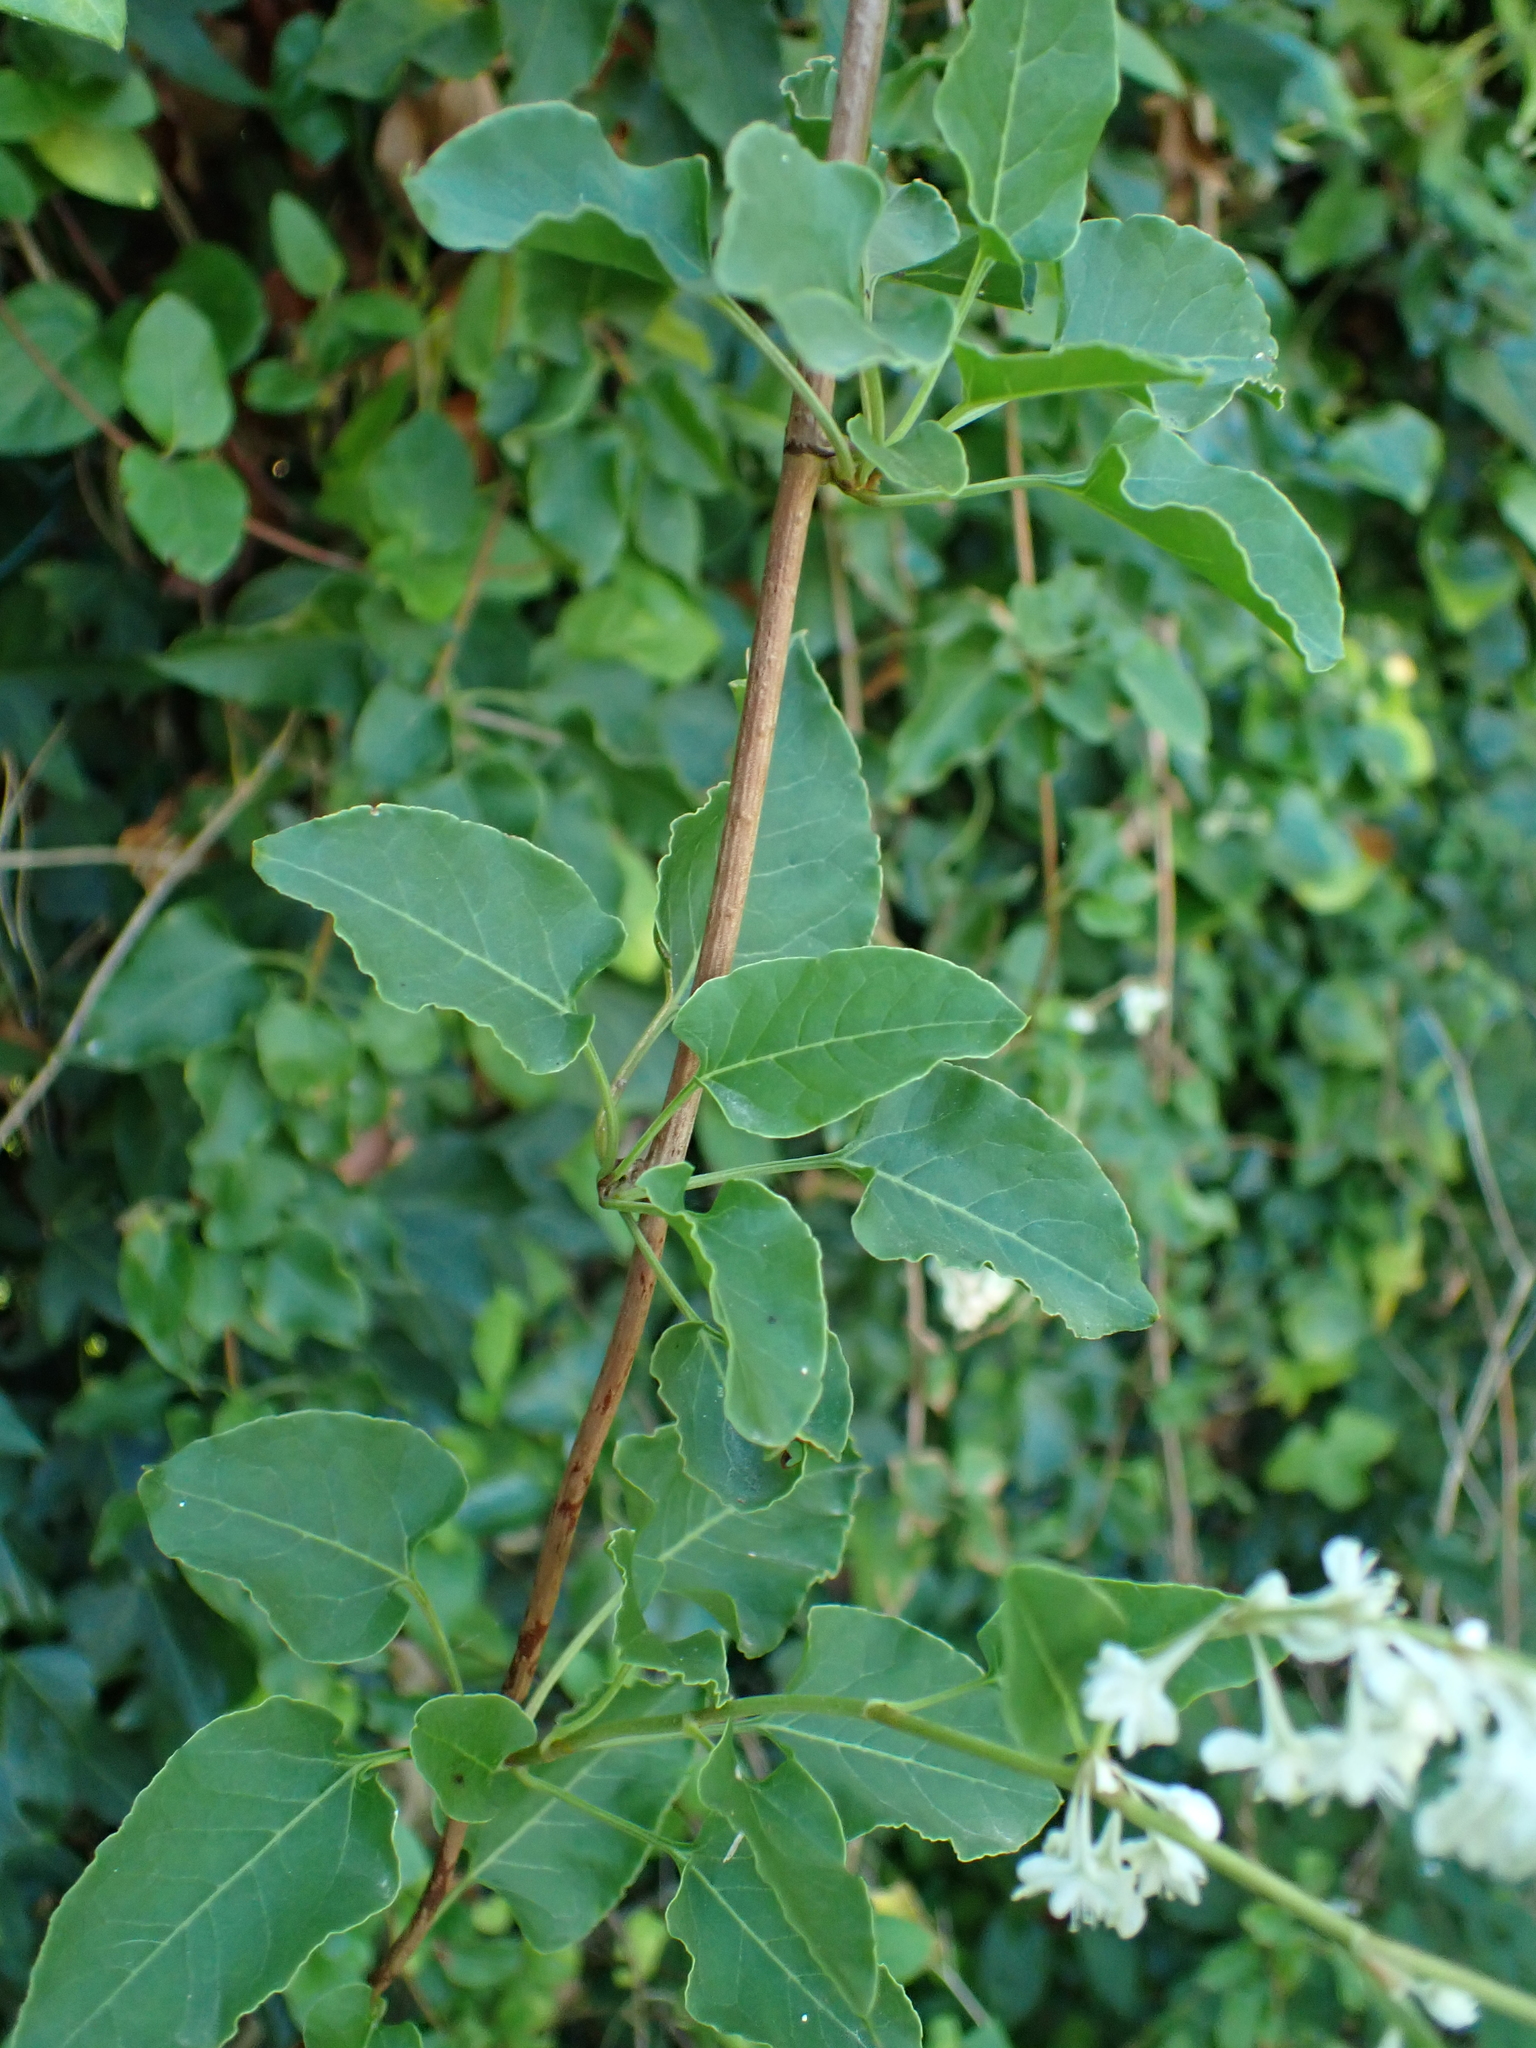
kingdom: Plantae
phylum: Tracheophyta
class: Magnoliopsida
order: Caryophyllales
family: Polygonaceae
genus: Fallopia
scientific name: Fallopia baldschuanica
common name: Russian-vine
